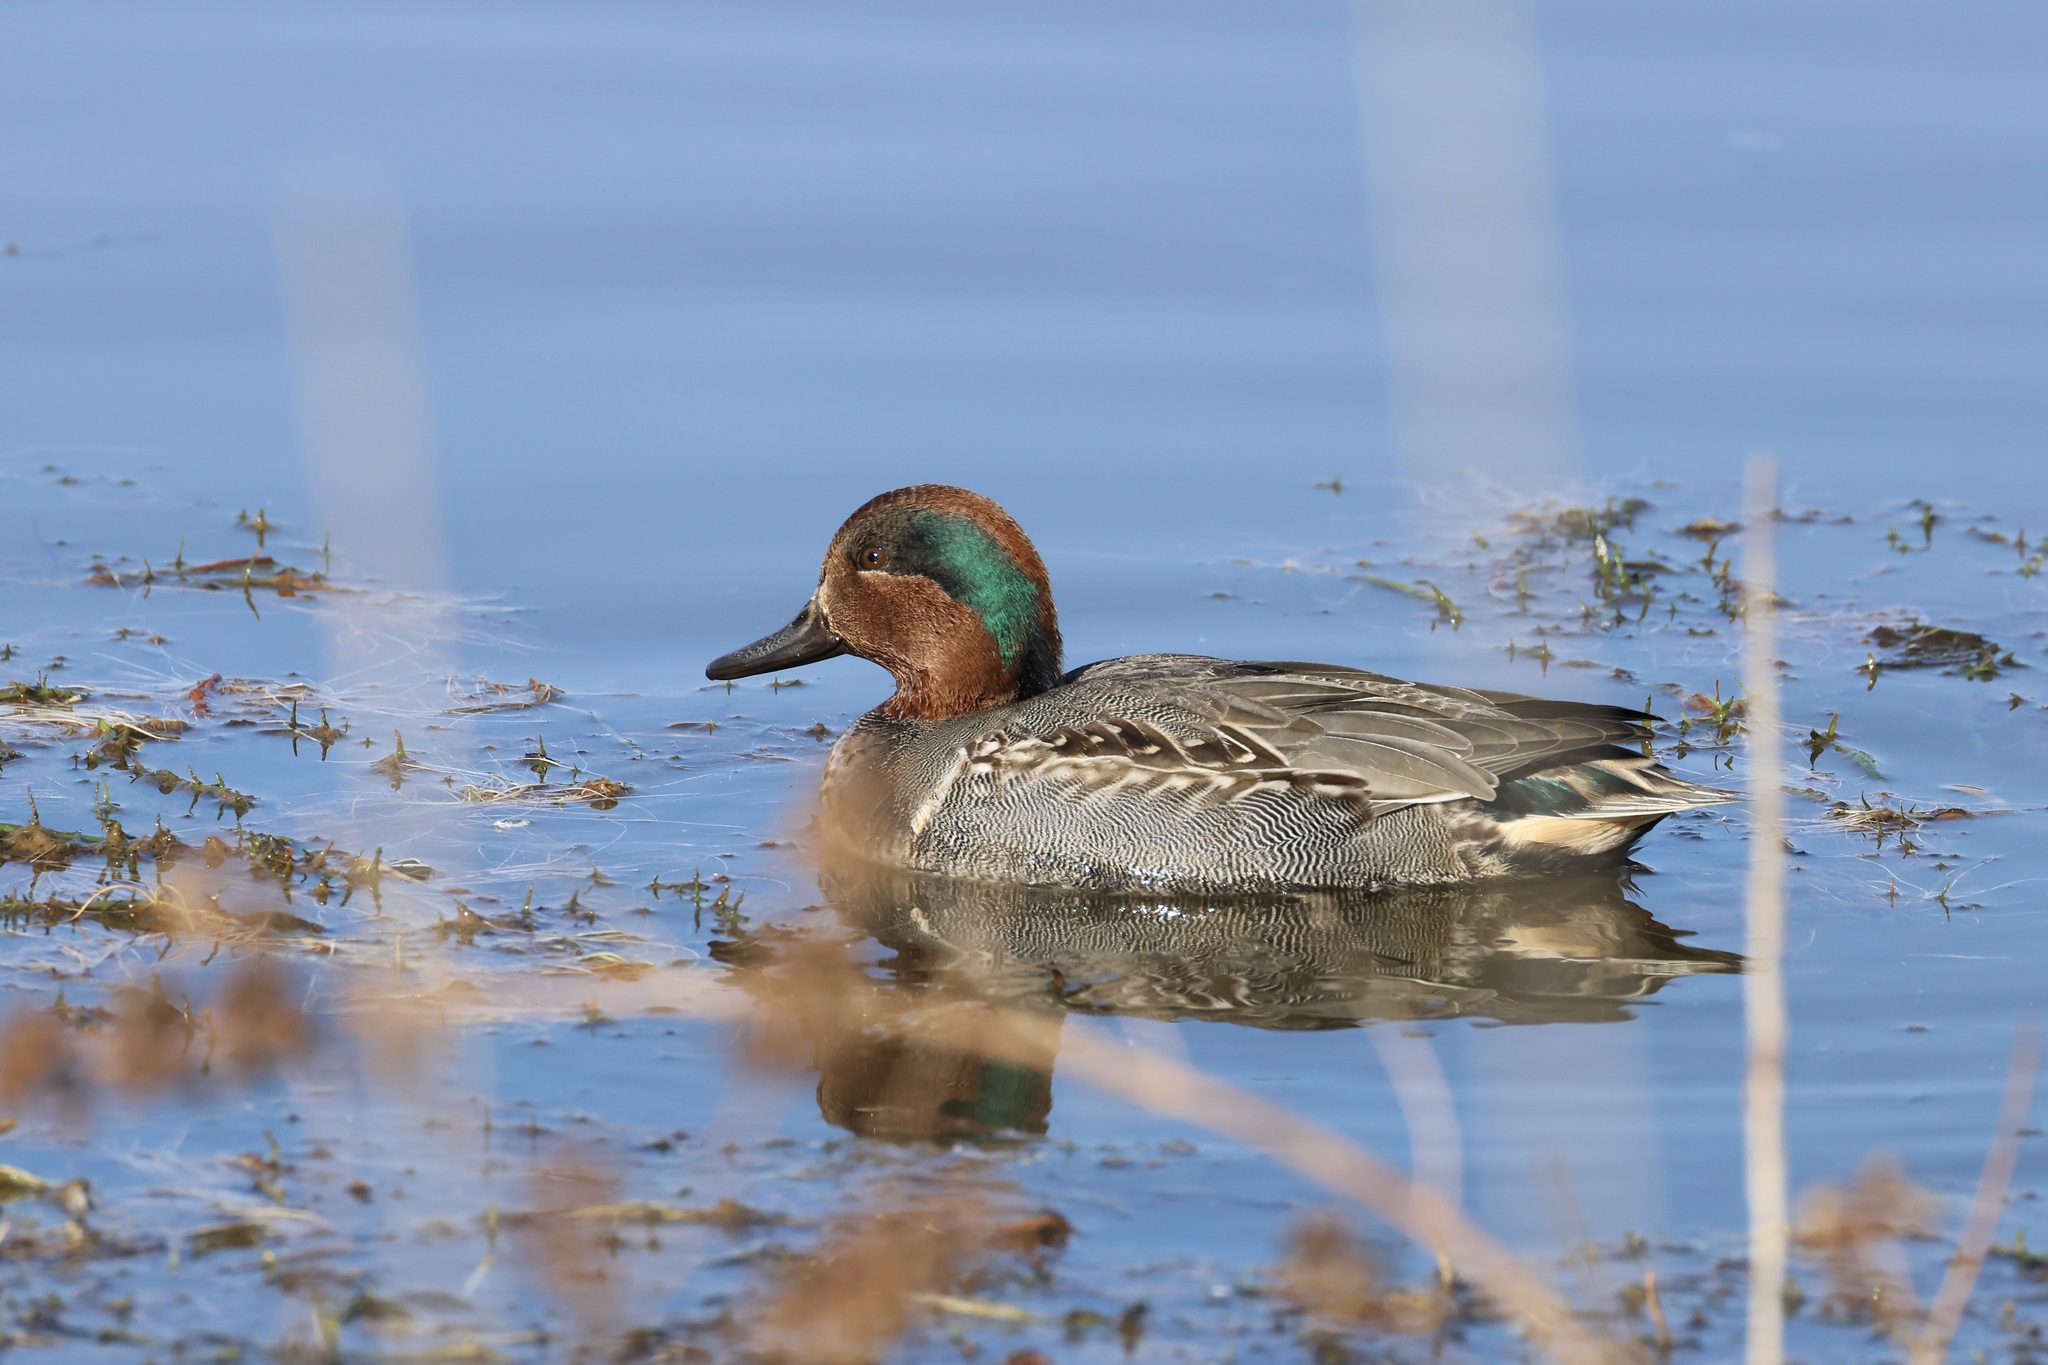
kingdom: Animalia
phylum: Chordata
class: Aves
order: Anseriformes
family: Anatidae
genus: Anas
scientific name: Anas crecca
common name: Eurasian teal
